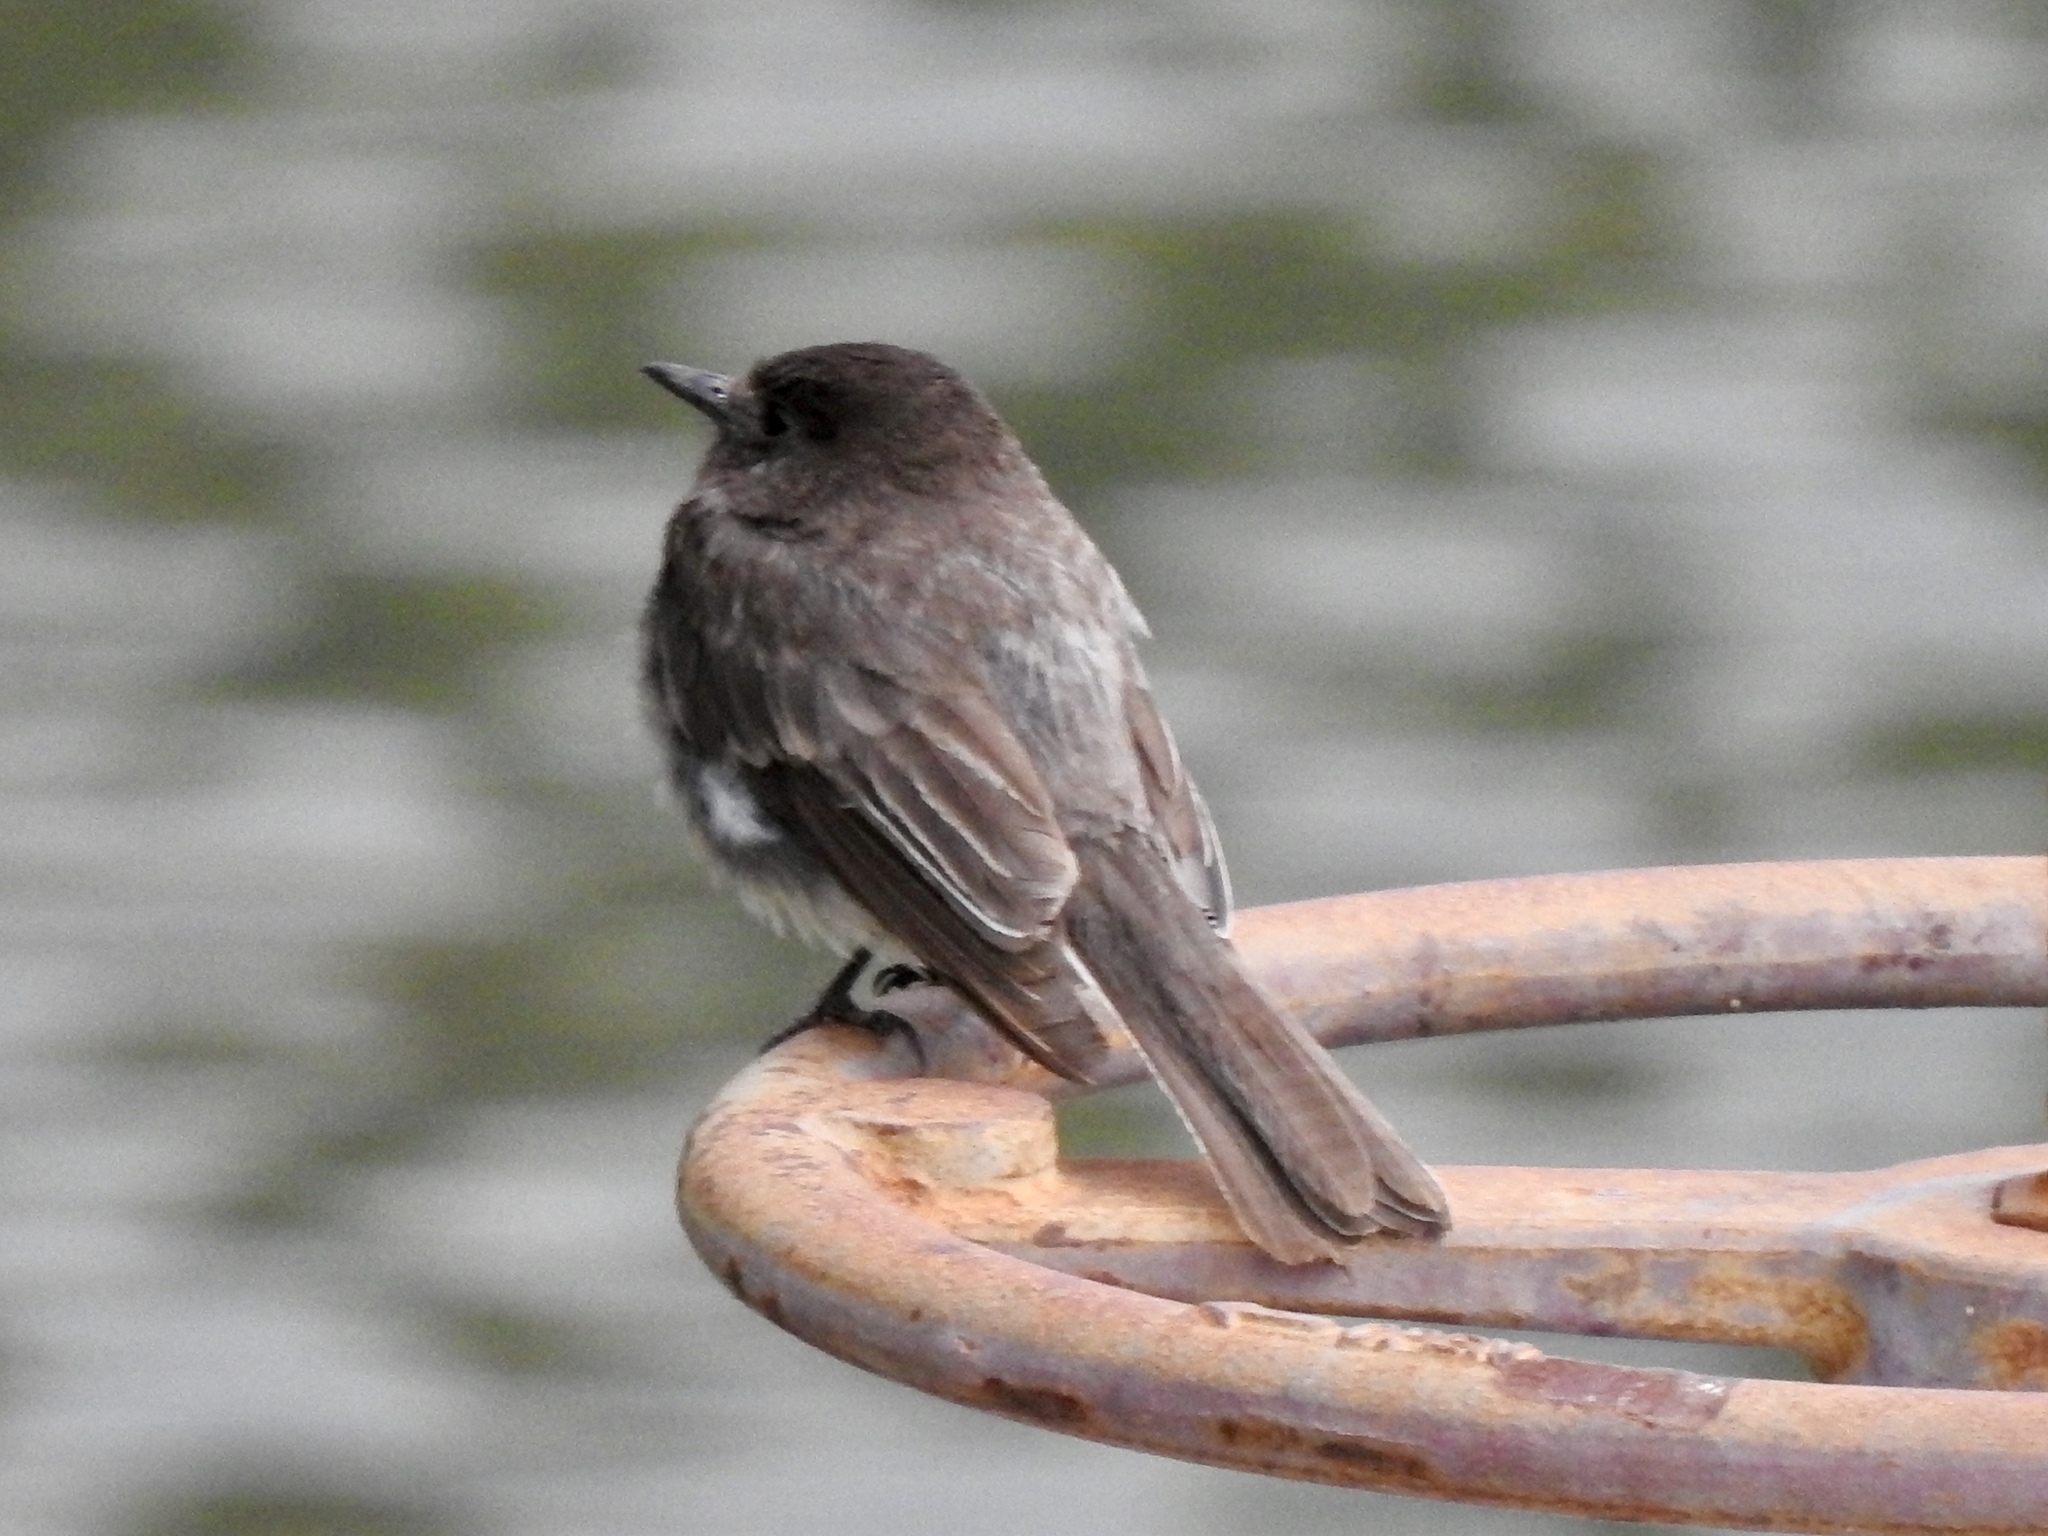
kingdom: Animalia
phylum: Chordata
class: Aves
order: Passeriformes
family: Tyrannidae
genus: Sayornis
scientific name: Sayornis nigricans
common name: Black phoebe
